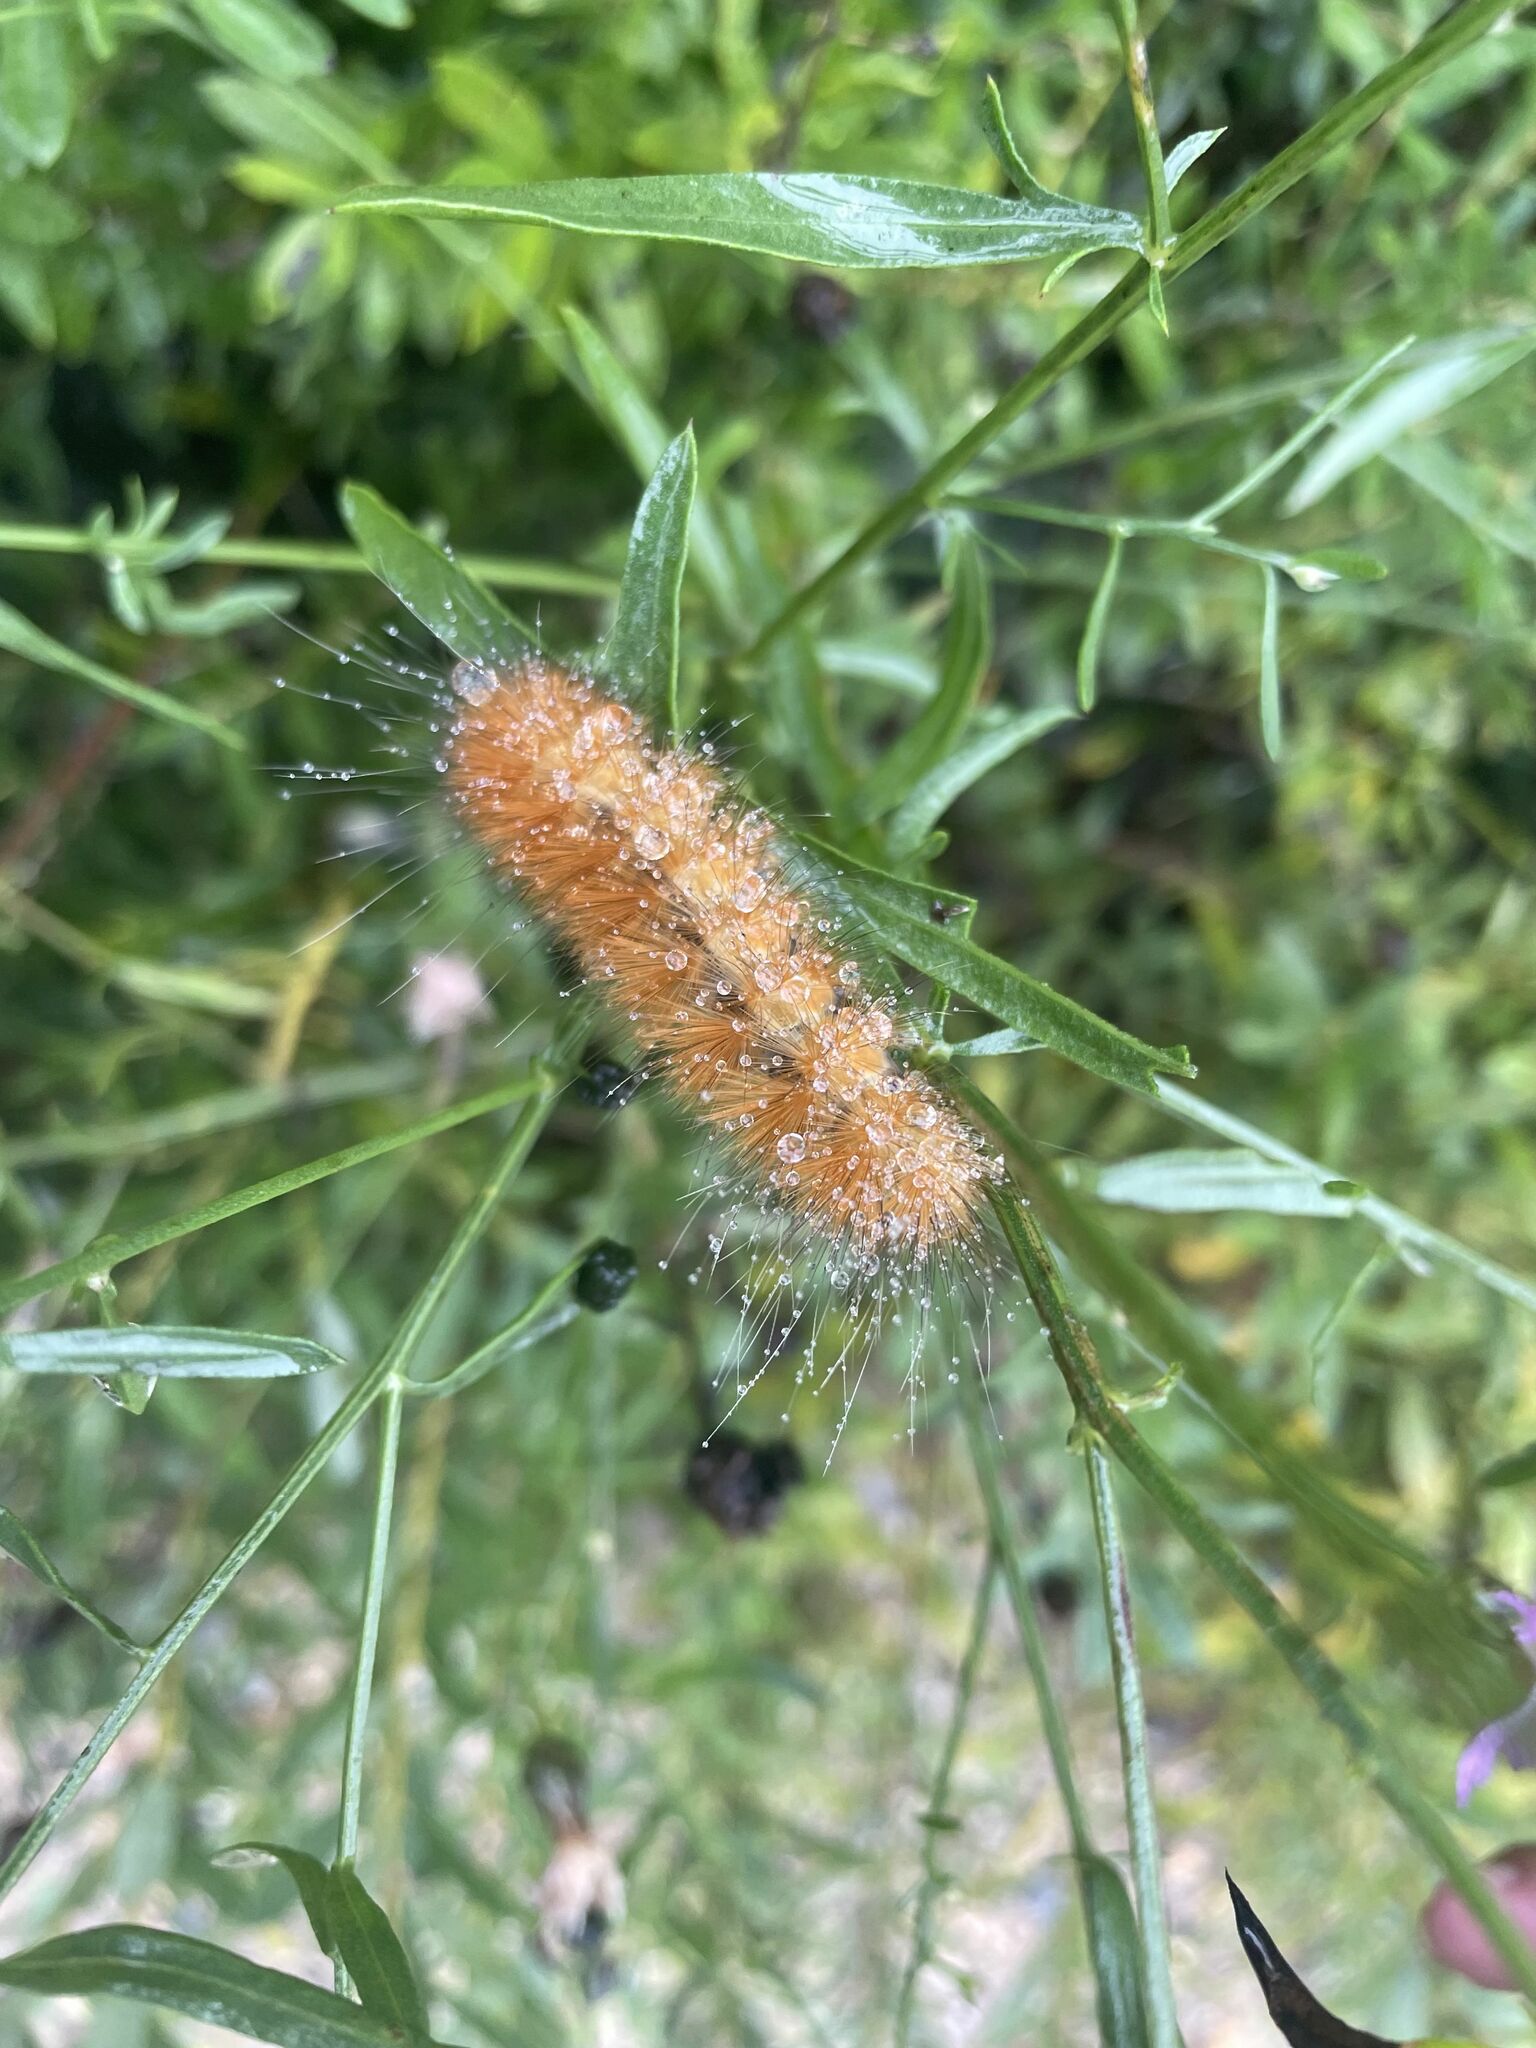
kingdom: Animalia
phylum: Arthropoda
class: Insecta
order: Lepidoptera
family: Erebidae
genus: Spilosoma
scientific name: Spilosoma virginica
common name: Virginia tiger moth
